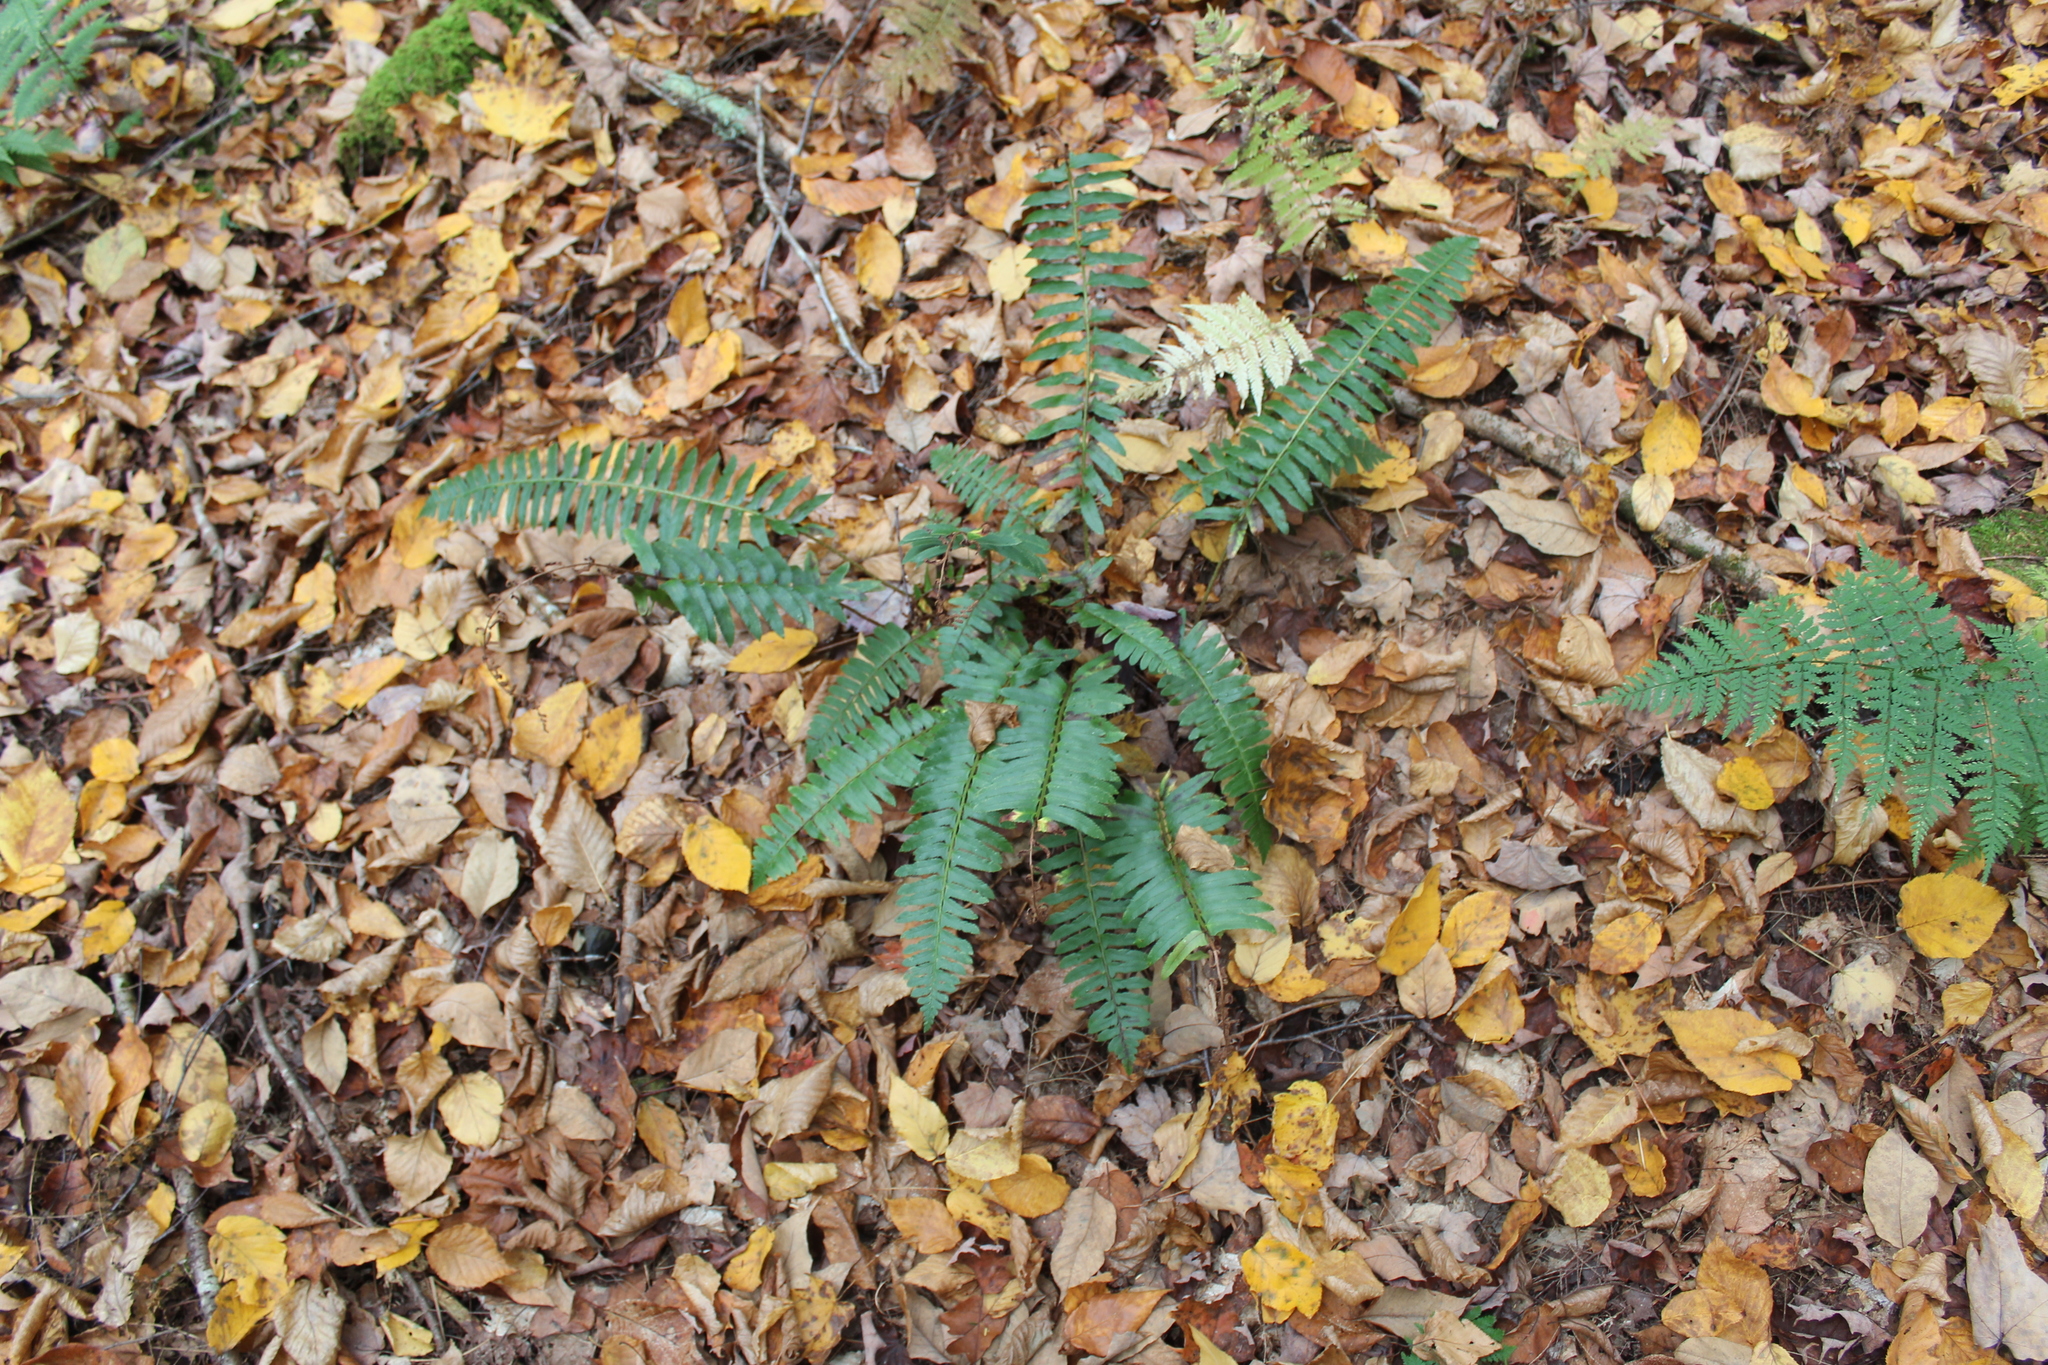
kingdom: Plantae
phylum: Tracheophyta
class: Polypodiopsida
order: Polypodiales
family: Dryopteridaceae
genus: Polystichum
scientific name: Polystichum acrostichoides
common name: Christmas fern
